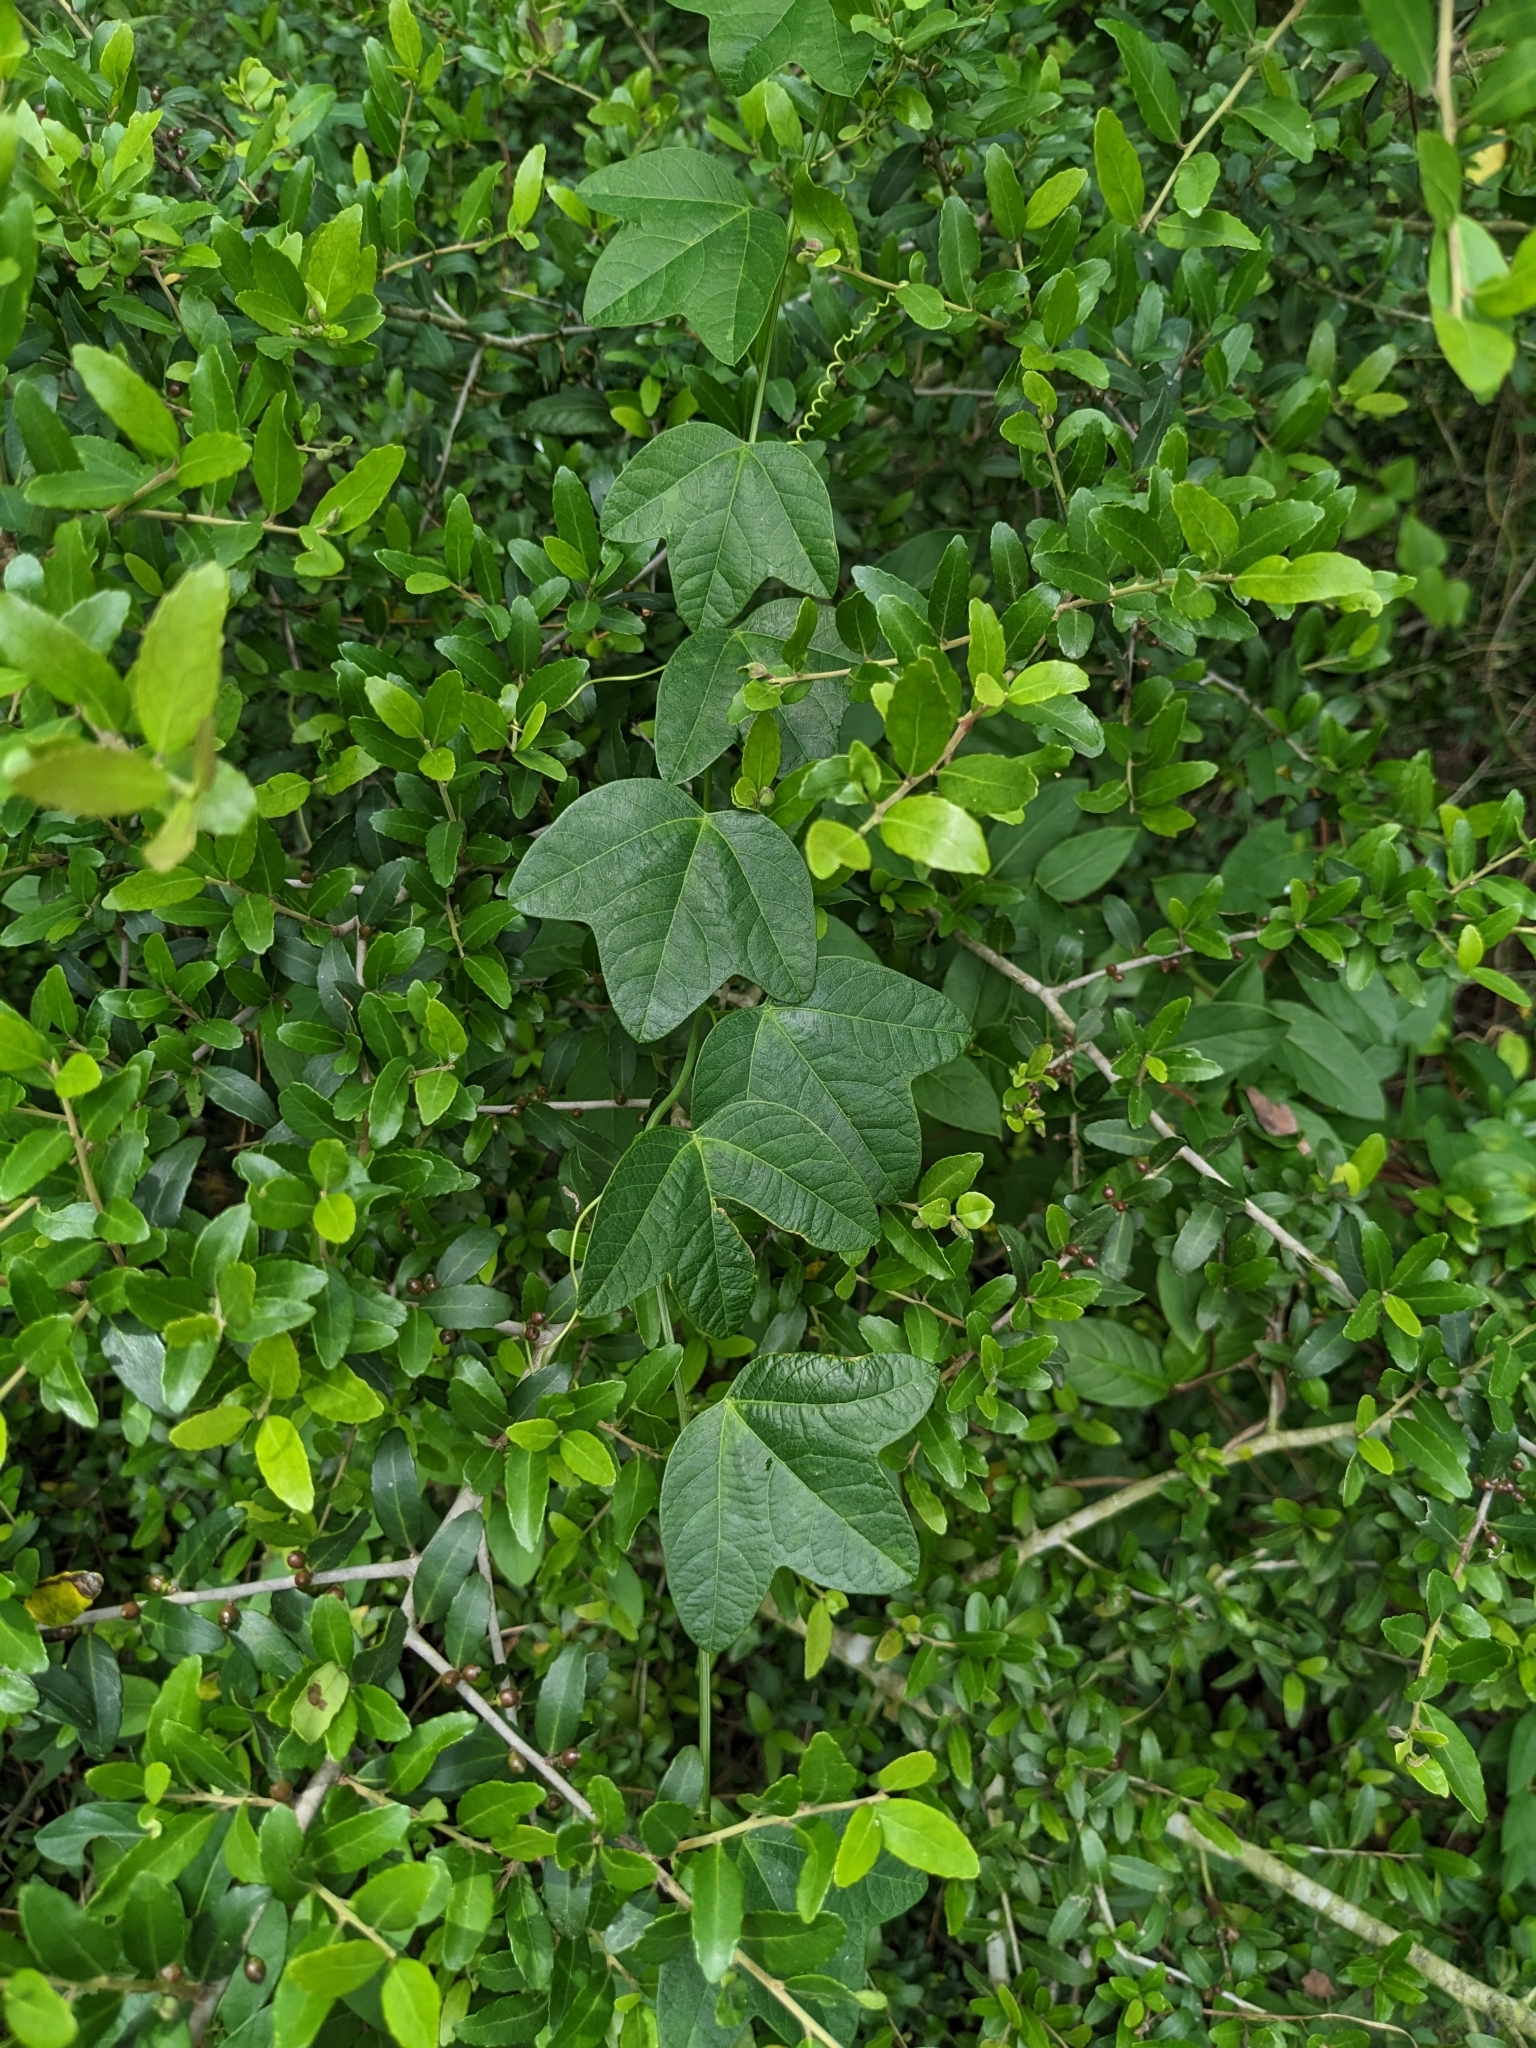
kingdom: Plantae
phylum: Tracheophyta
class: Magnoliopsida
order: Malpighiales
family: Passifloraceae
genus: Passiflora
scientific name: Passiflora lutea
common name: Yellow passionflower
